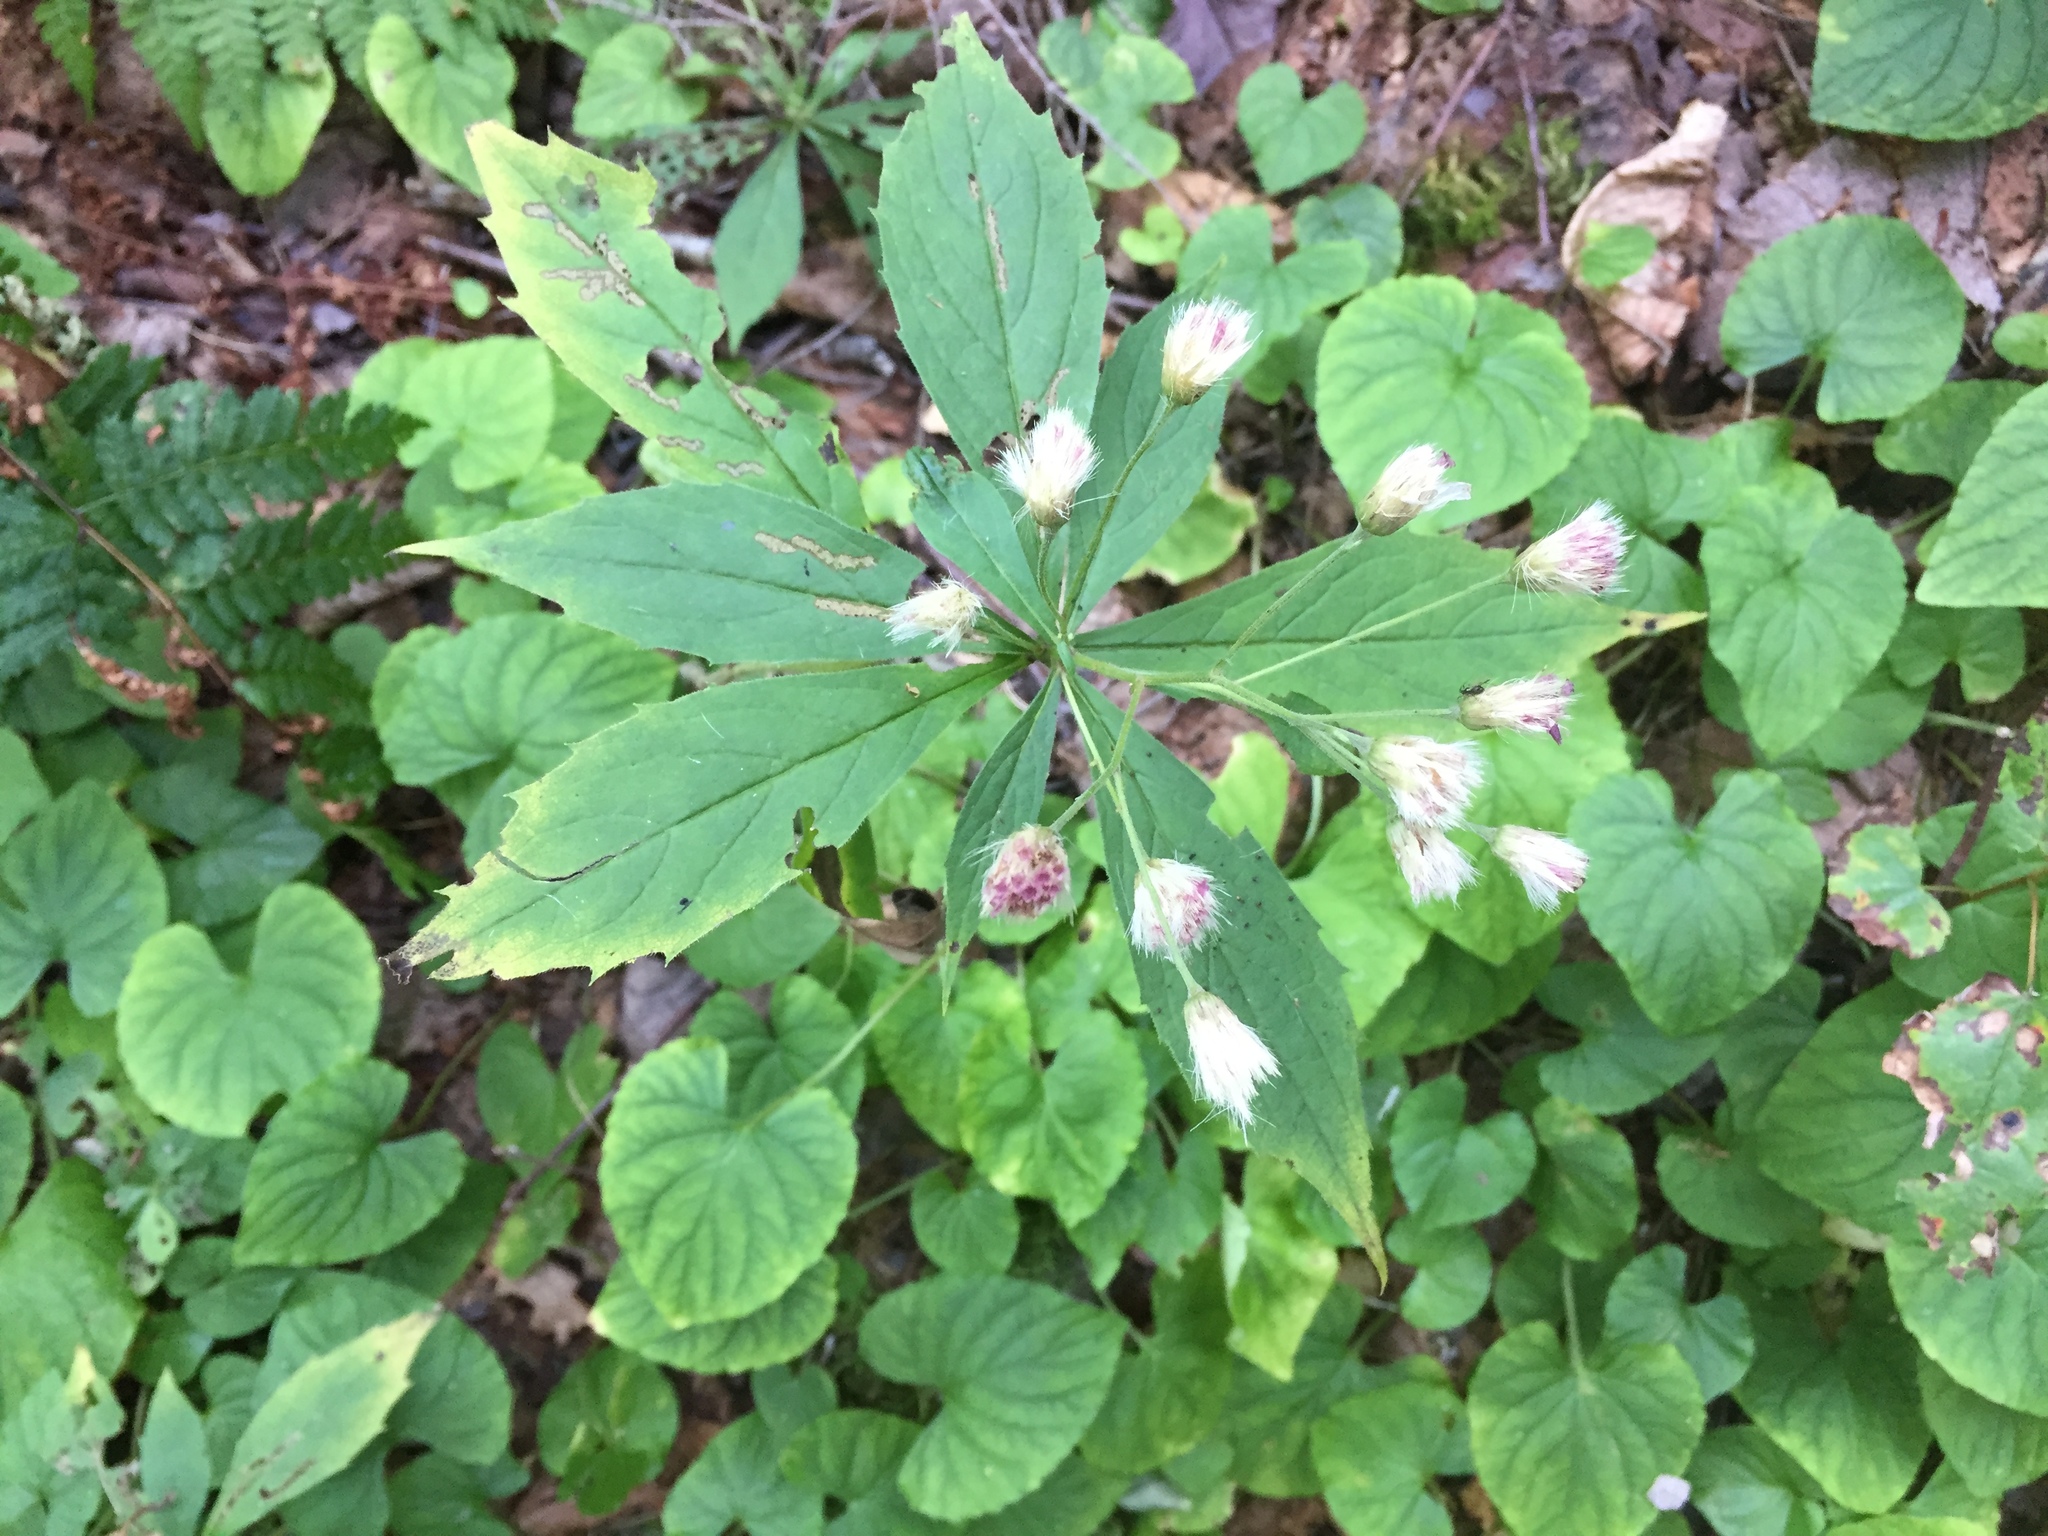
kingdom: Plantae
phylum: Tracheophyta
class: Magnoliopsida
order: Asterales
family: Asteraceae
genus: Oclemena
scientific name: Oclemena acuminata
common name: Mountain aster
